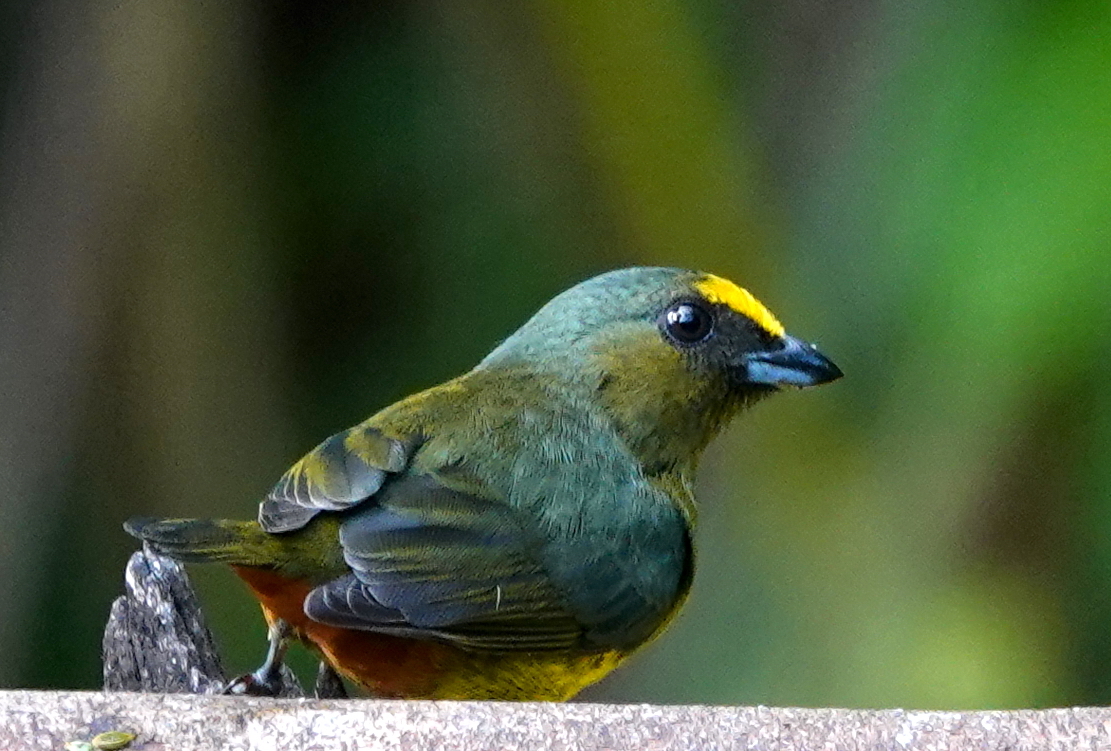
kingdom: Animalia
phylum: Chordata
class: Aves
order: Passeriformes
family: Fringillidae
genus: Euphonia
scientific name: Euphonia gouldi
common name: Olive-backed euphonia
